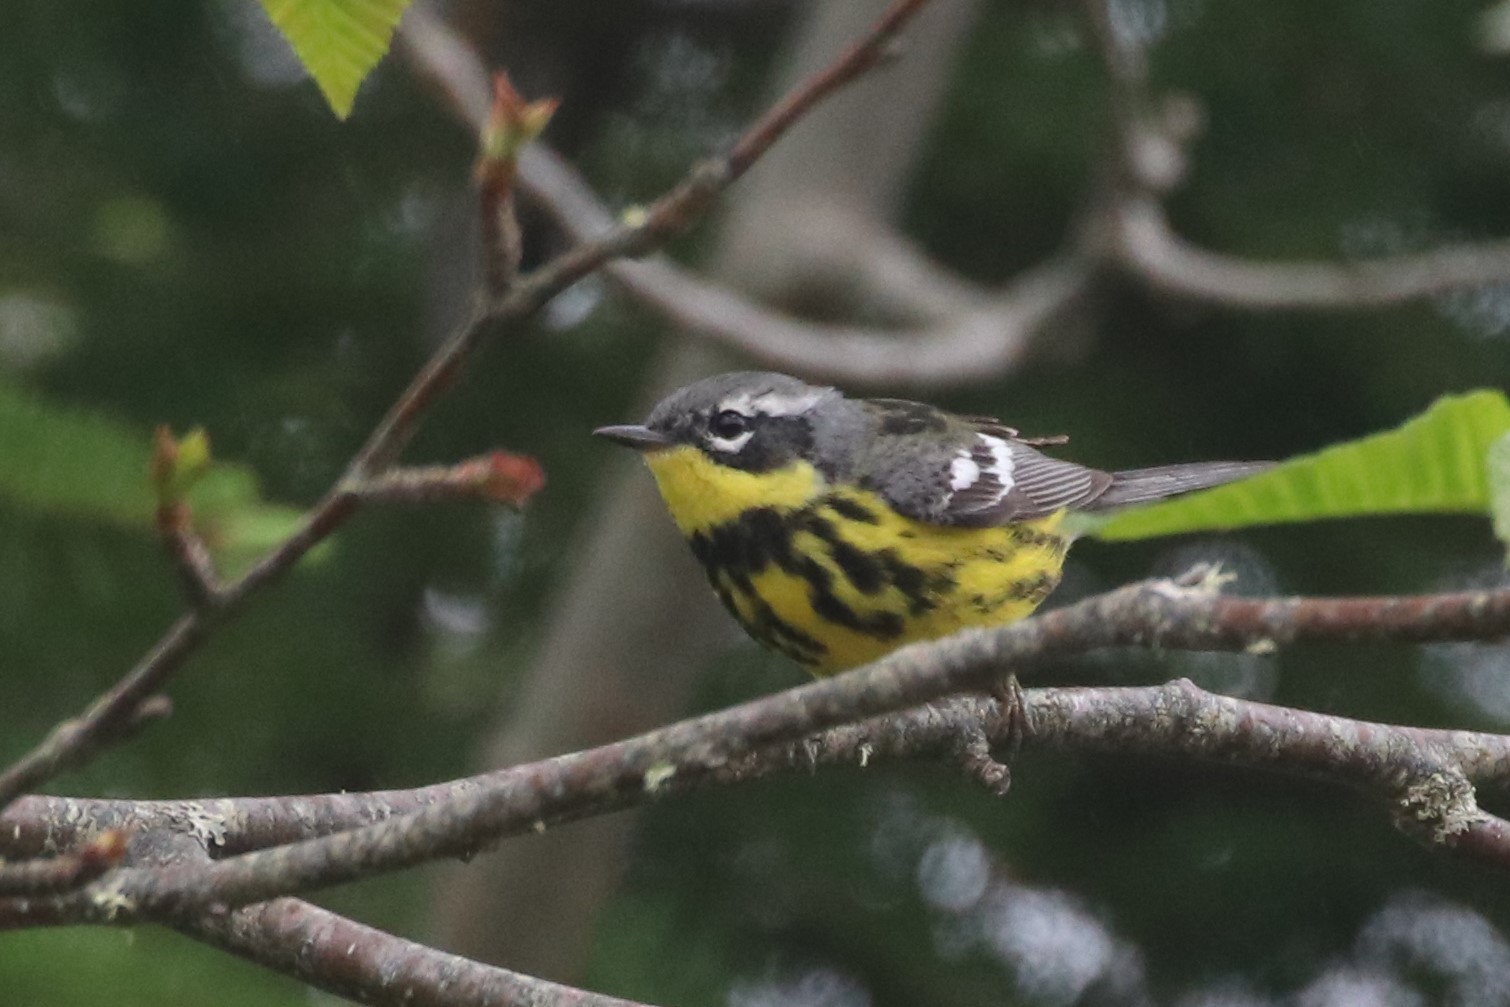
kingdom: Animalia
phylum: Chordata
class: Aves
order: Passeriformes
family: Parulidae
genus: Setophaga
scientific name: Setophaga magnolia
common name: Magnolia warbler
